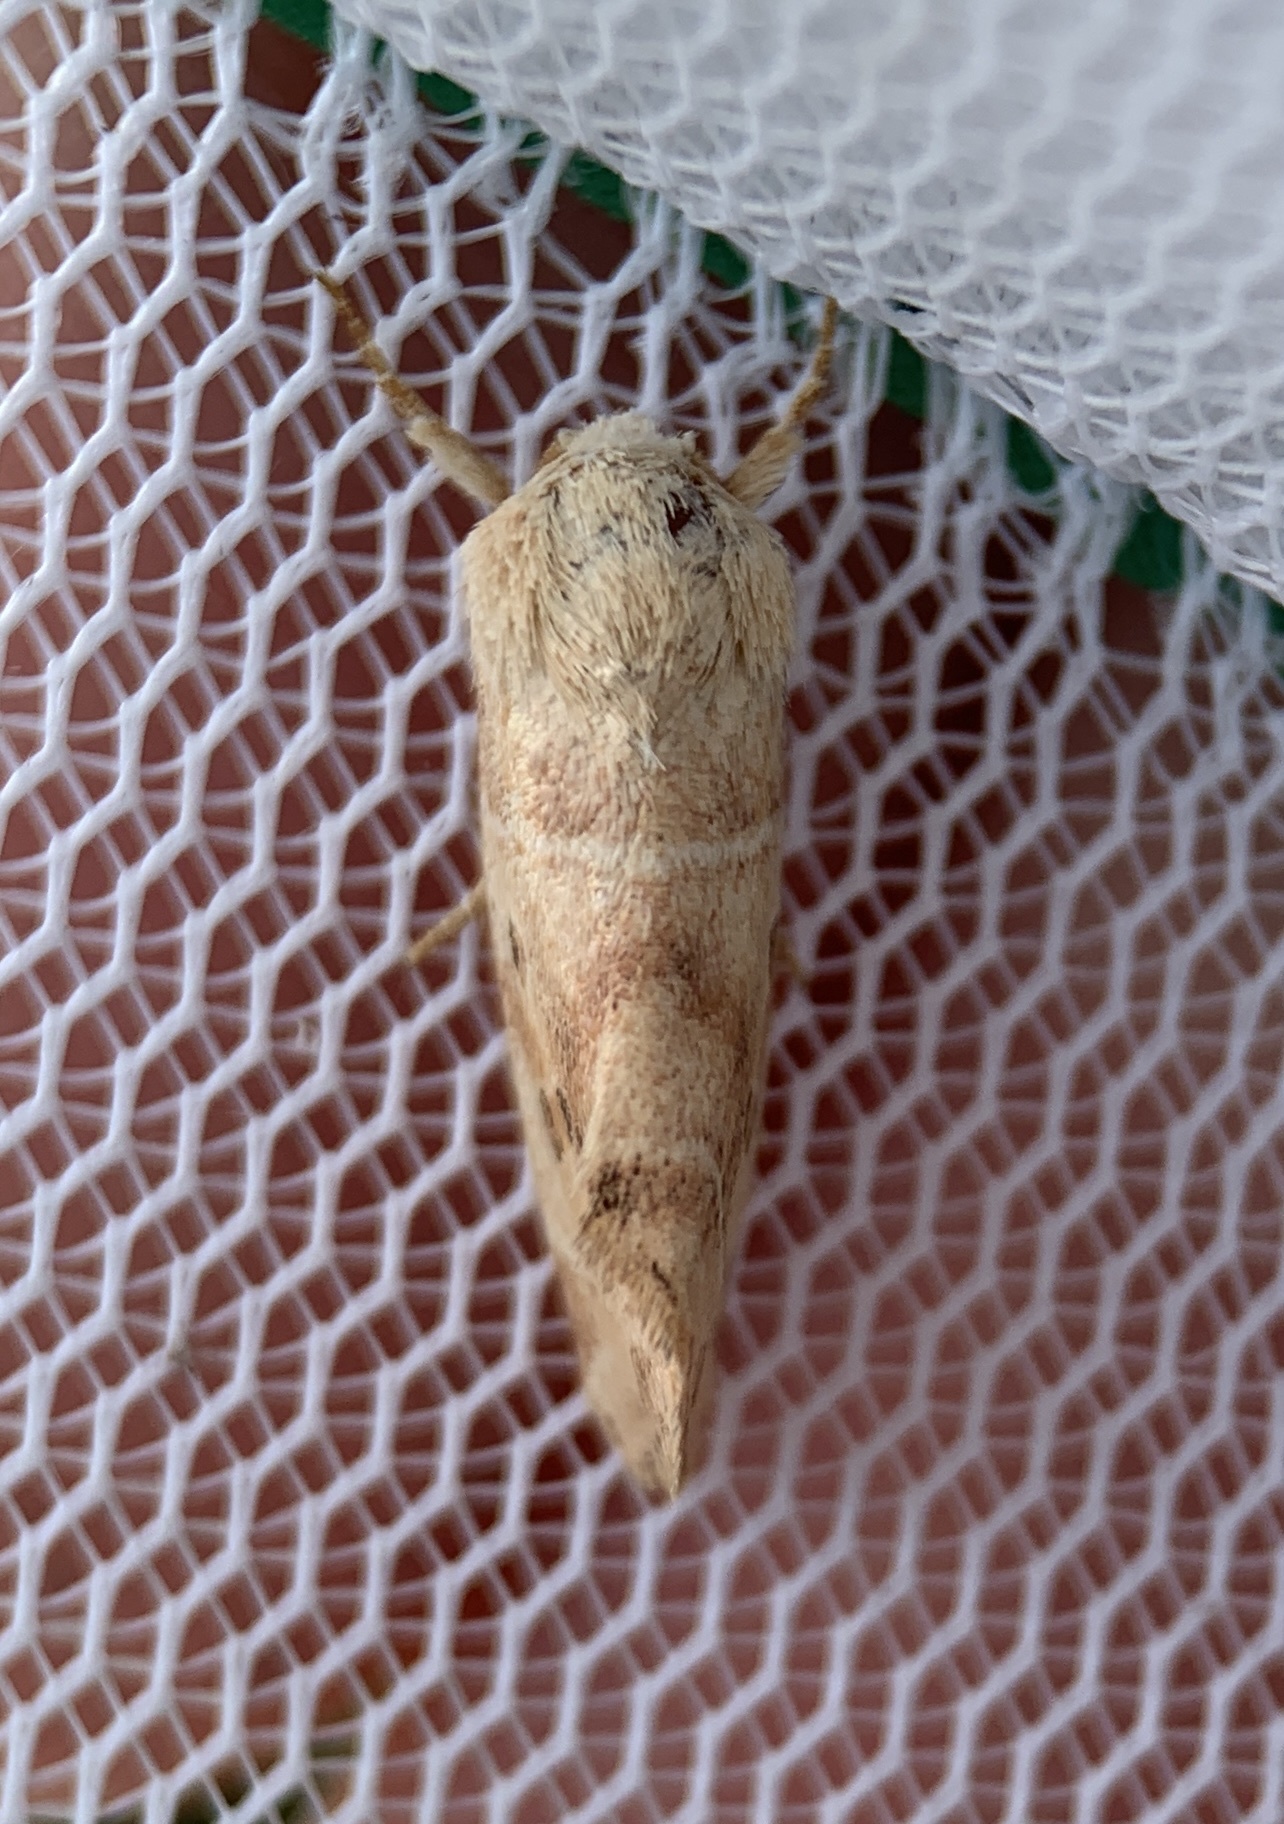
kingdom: Animalia
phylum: Arthropoda
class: Insecta
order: Lepidoptera
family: Noctuidae
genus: Cosmia
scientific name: Cosmia calami
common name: American dun-bar moth
